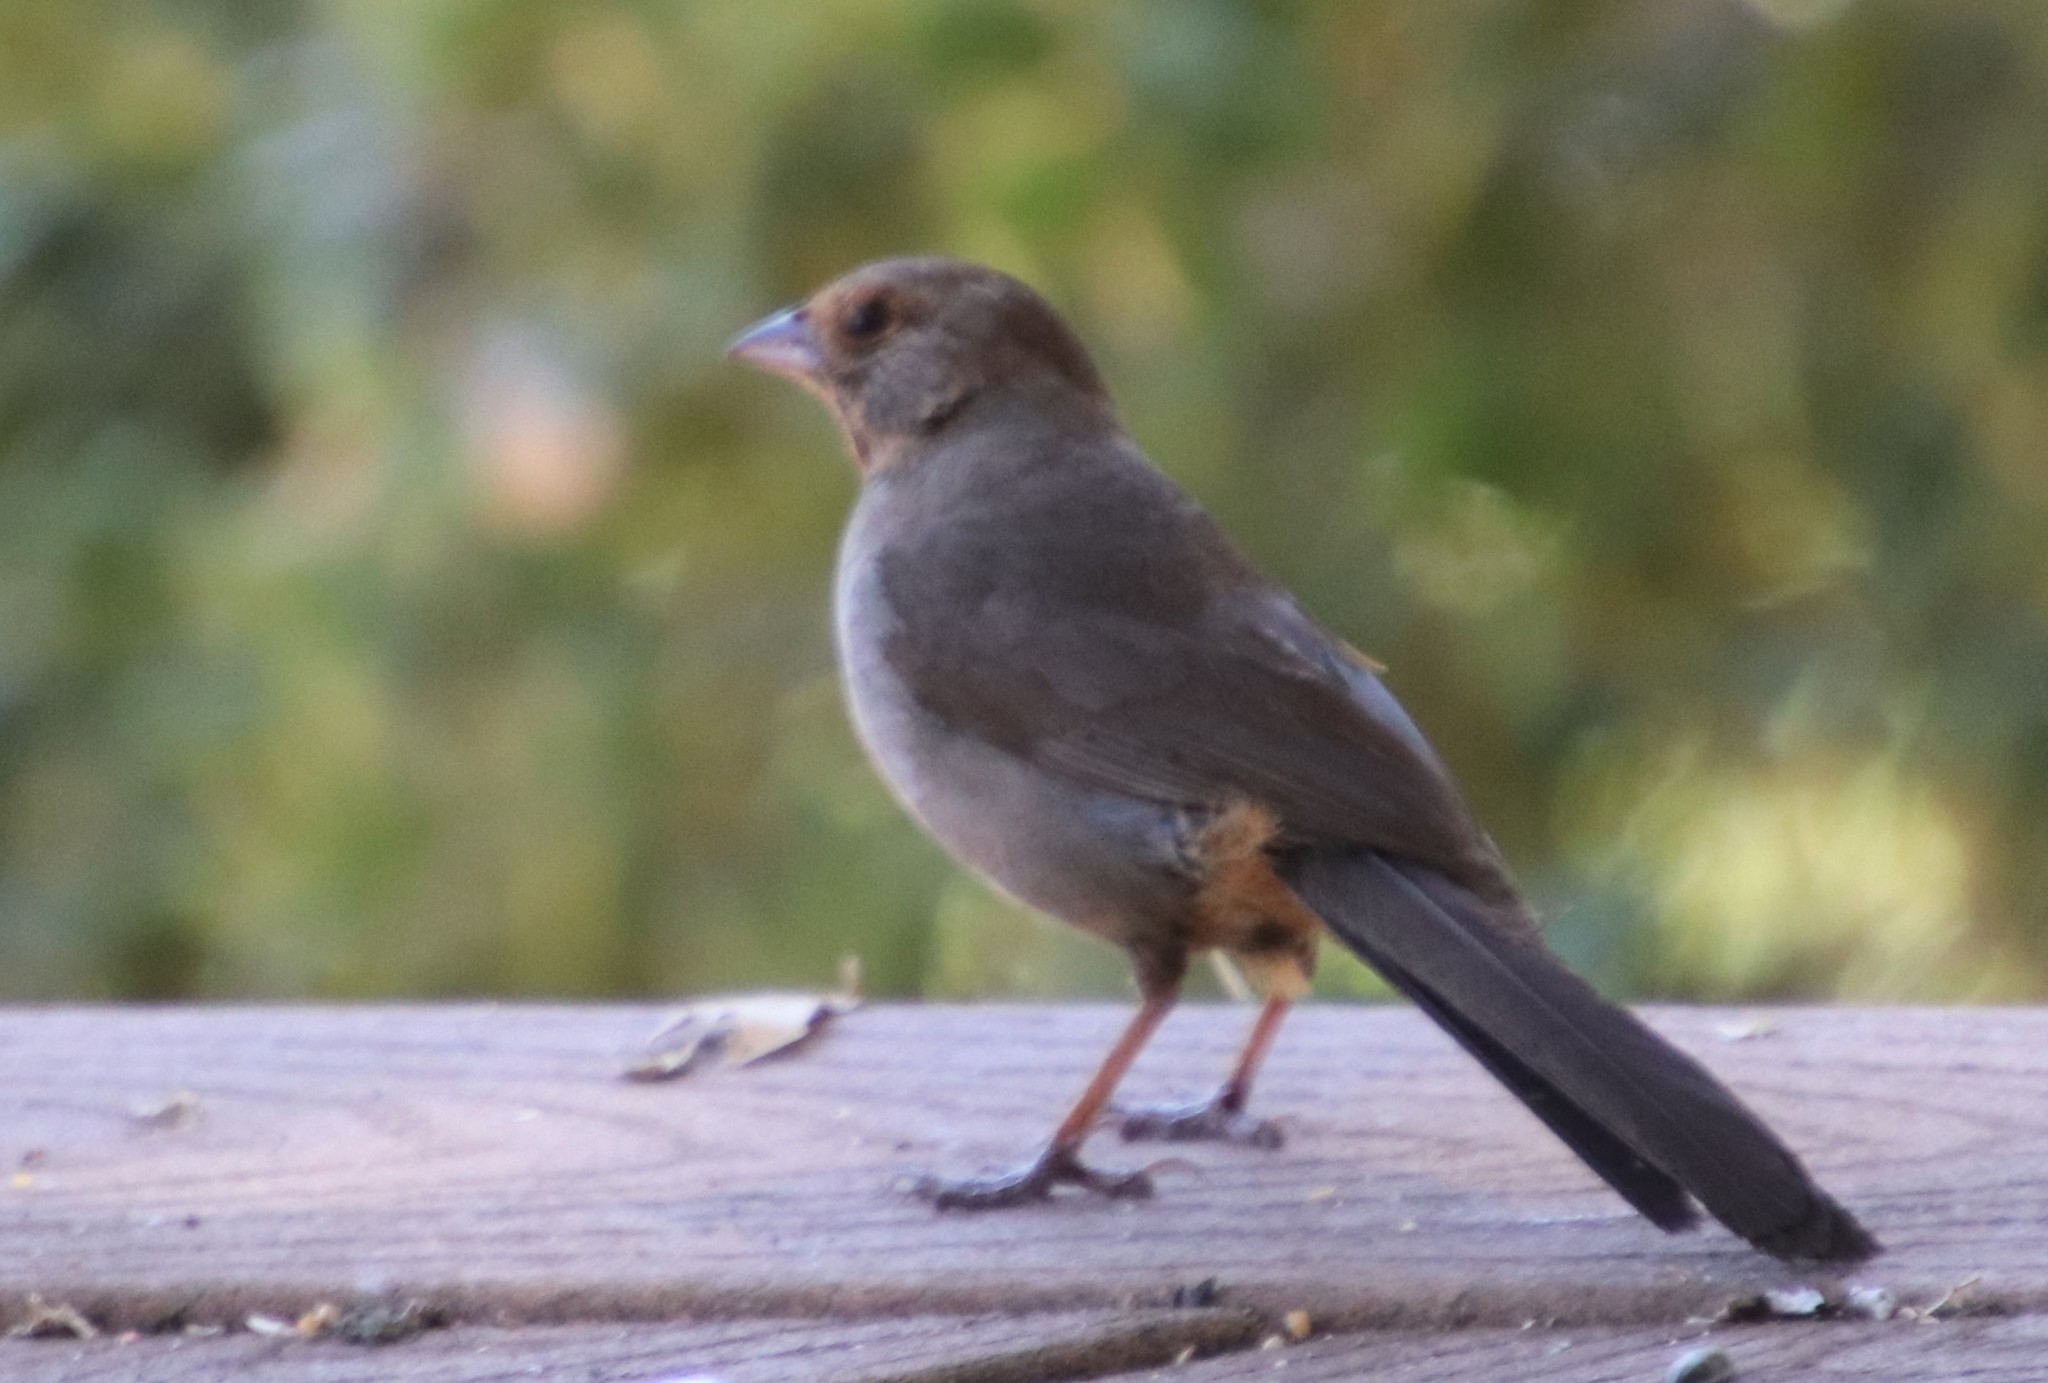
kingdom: Animalia
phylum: Chordata
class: Aves
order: Passeriformes
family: Passerellidae
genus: Melozone
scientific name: Melozone crissalis
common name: California towhee
